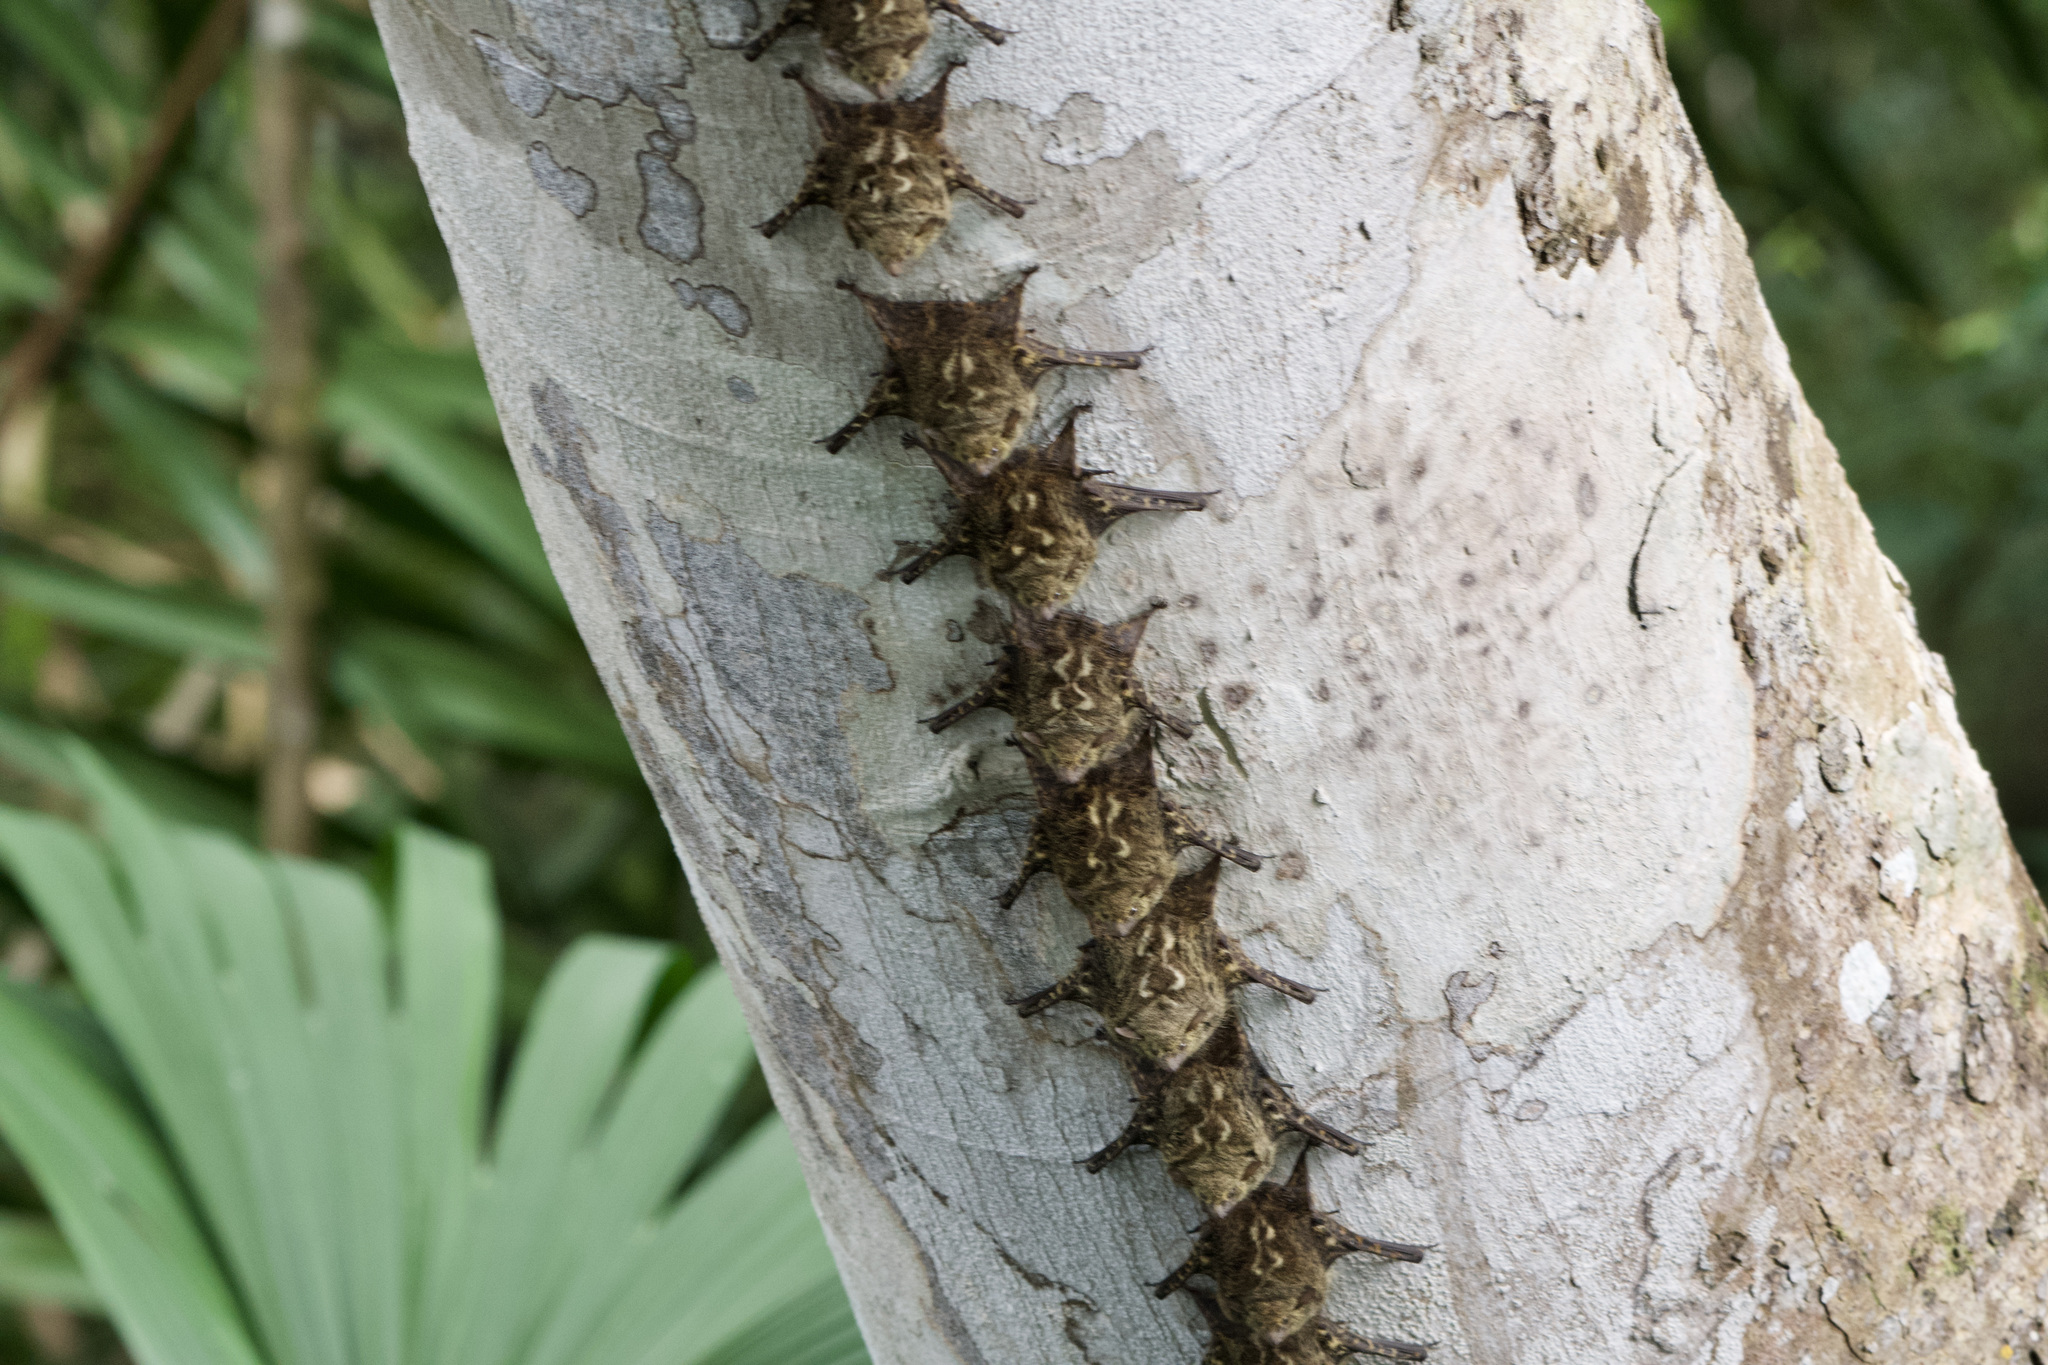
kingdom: Animalia
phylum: Chordata
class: Mammalia
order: Chiroptera
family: Emballonuridae
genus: Rhynchonycteris
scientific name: Rhynchonycteris naso
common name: Proboscis bat
